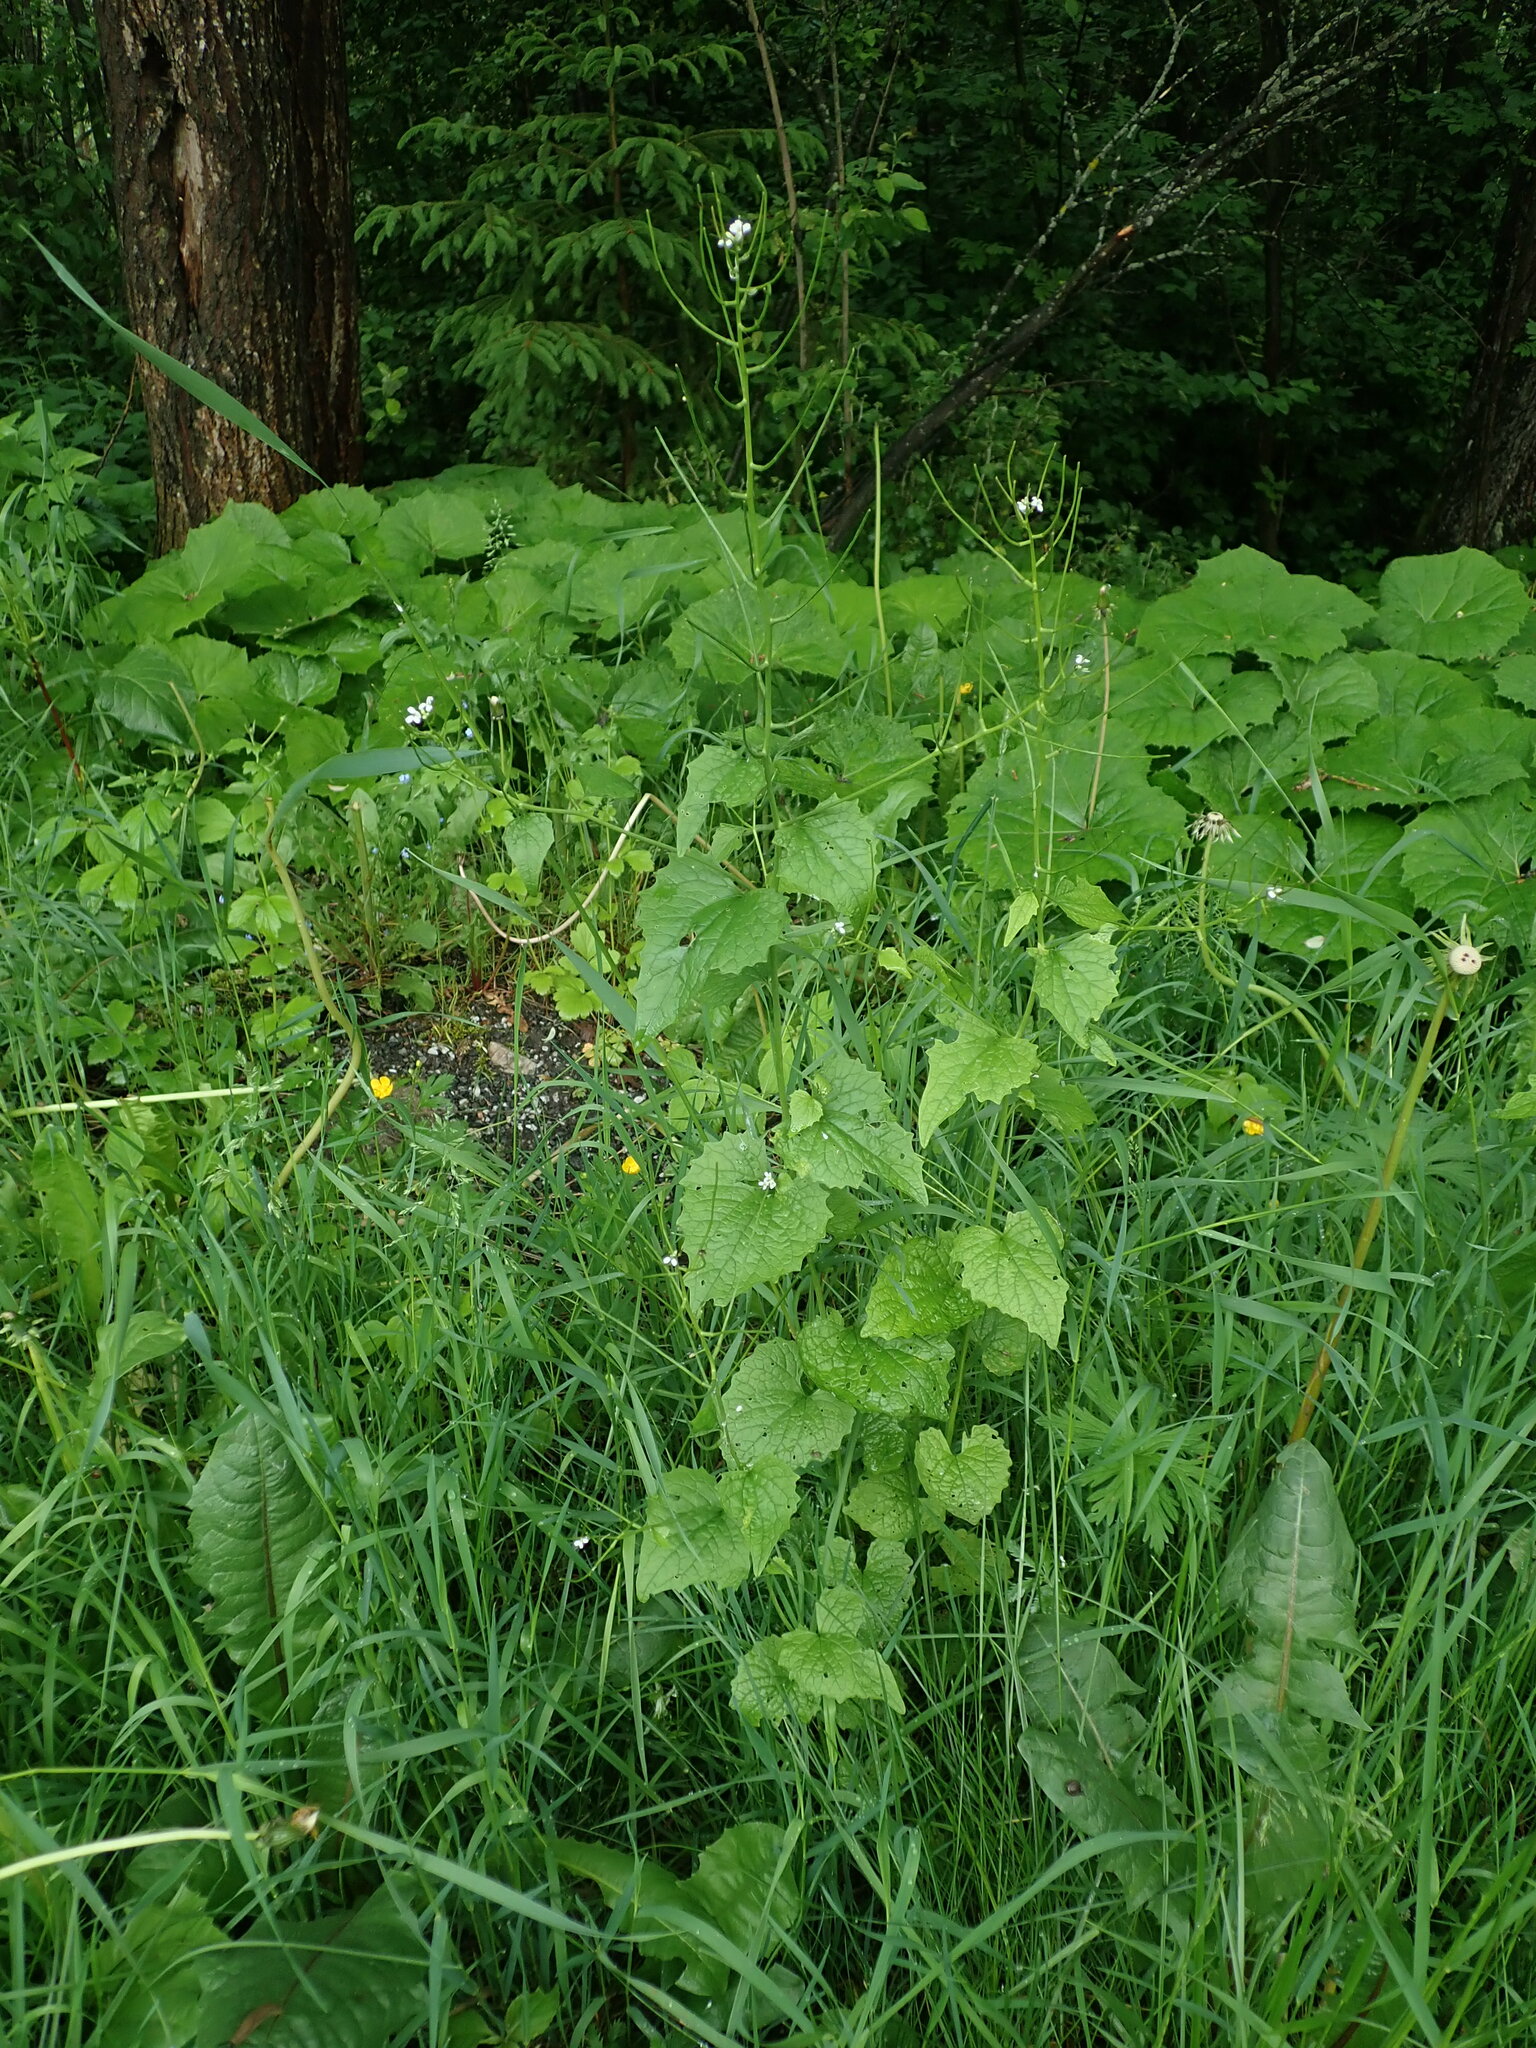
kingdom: Plantae
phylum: Tracheophyta
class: Magnoliopsida
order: Brassicales
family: Brassicaceae
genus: Alliaria
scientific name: Alliaria petiolata
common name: Garlic mustard
